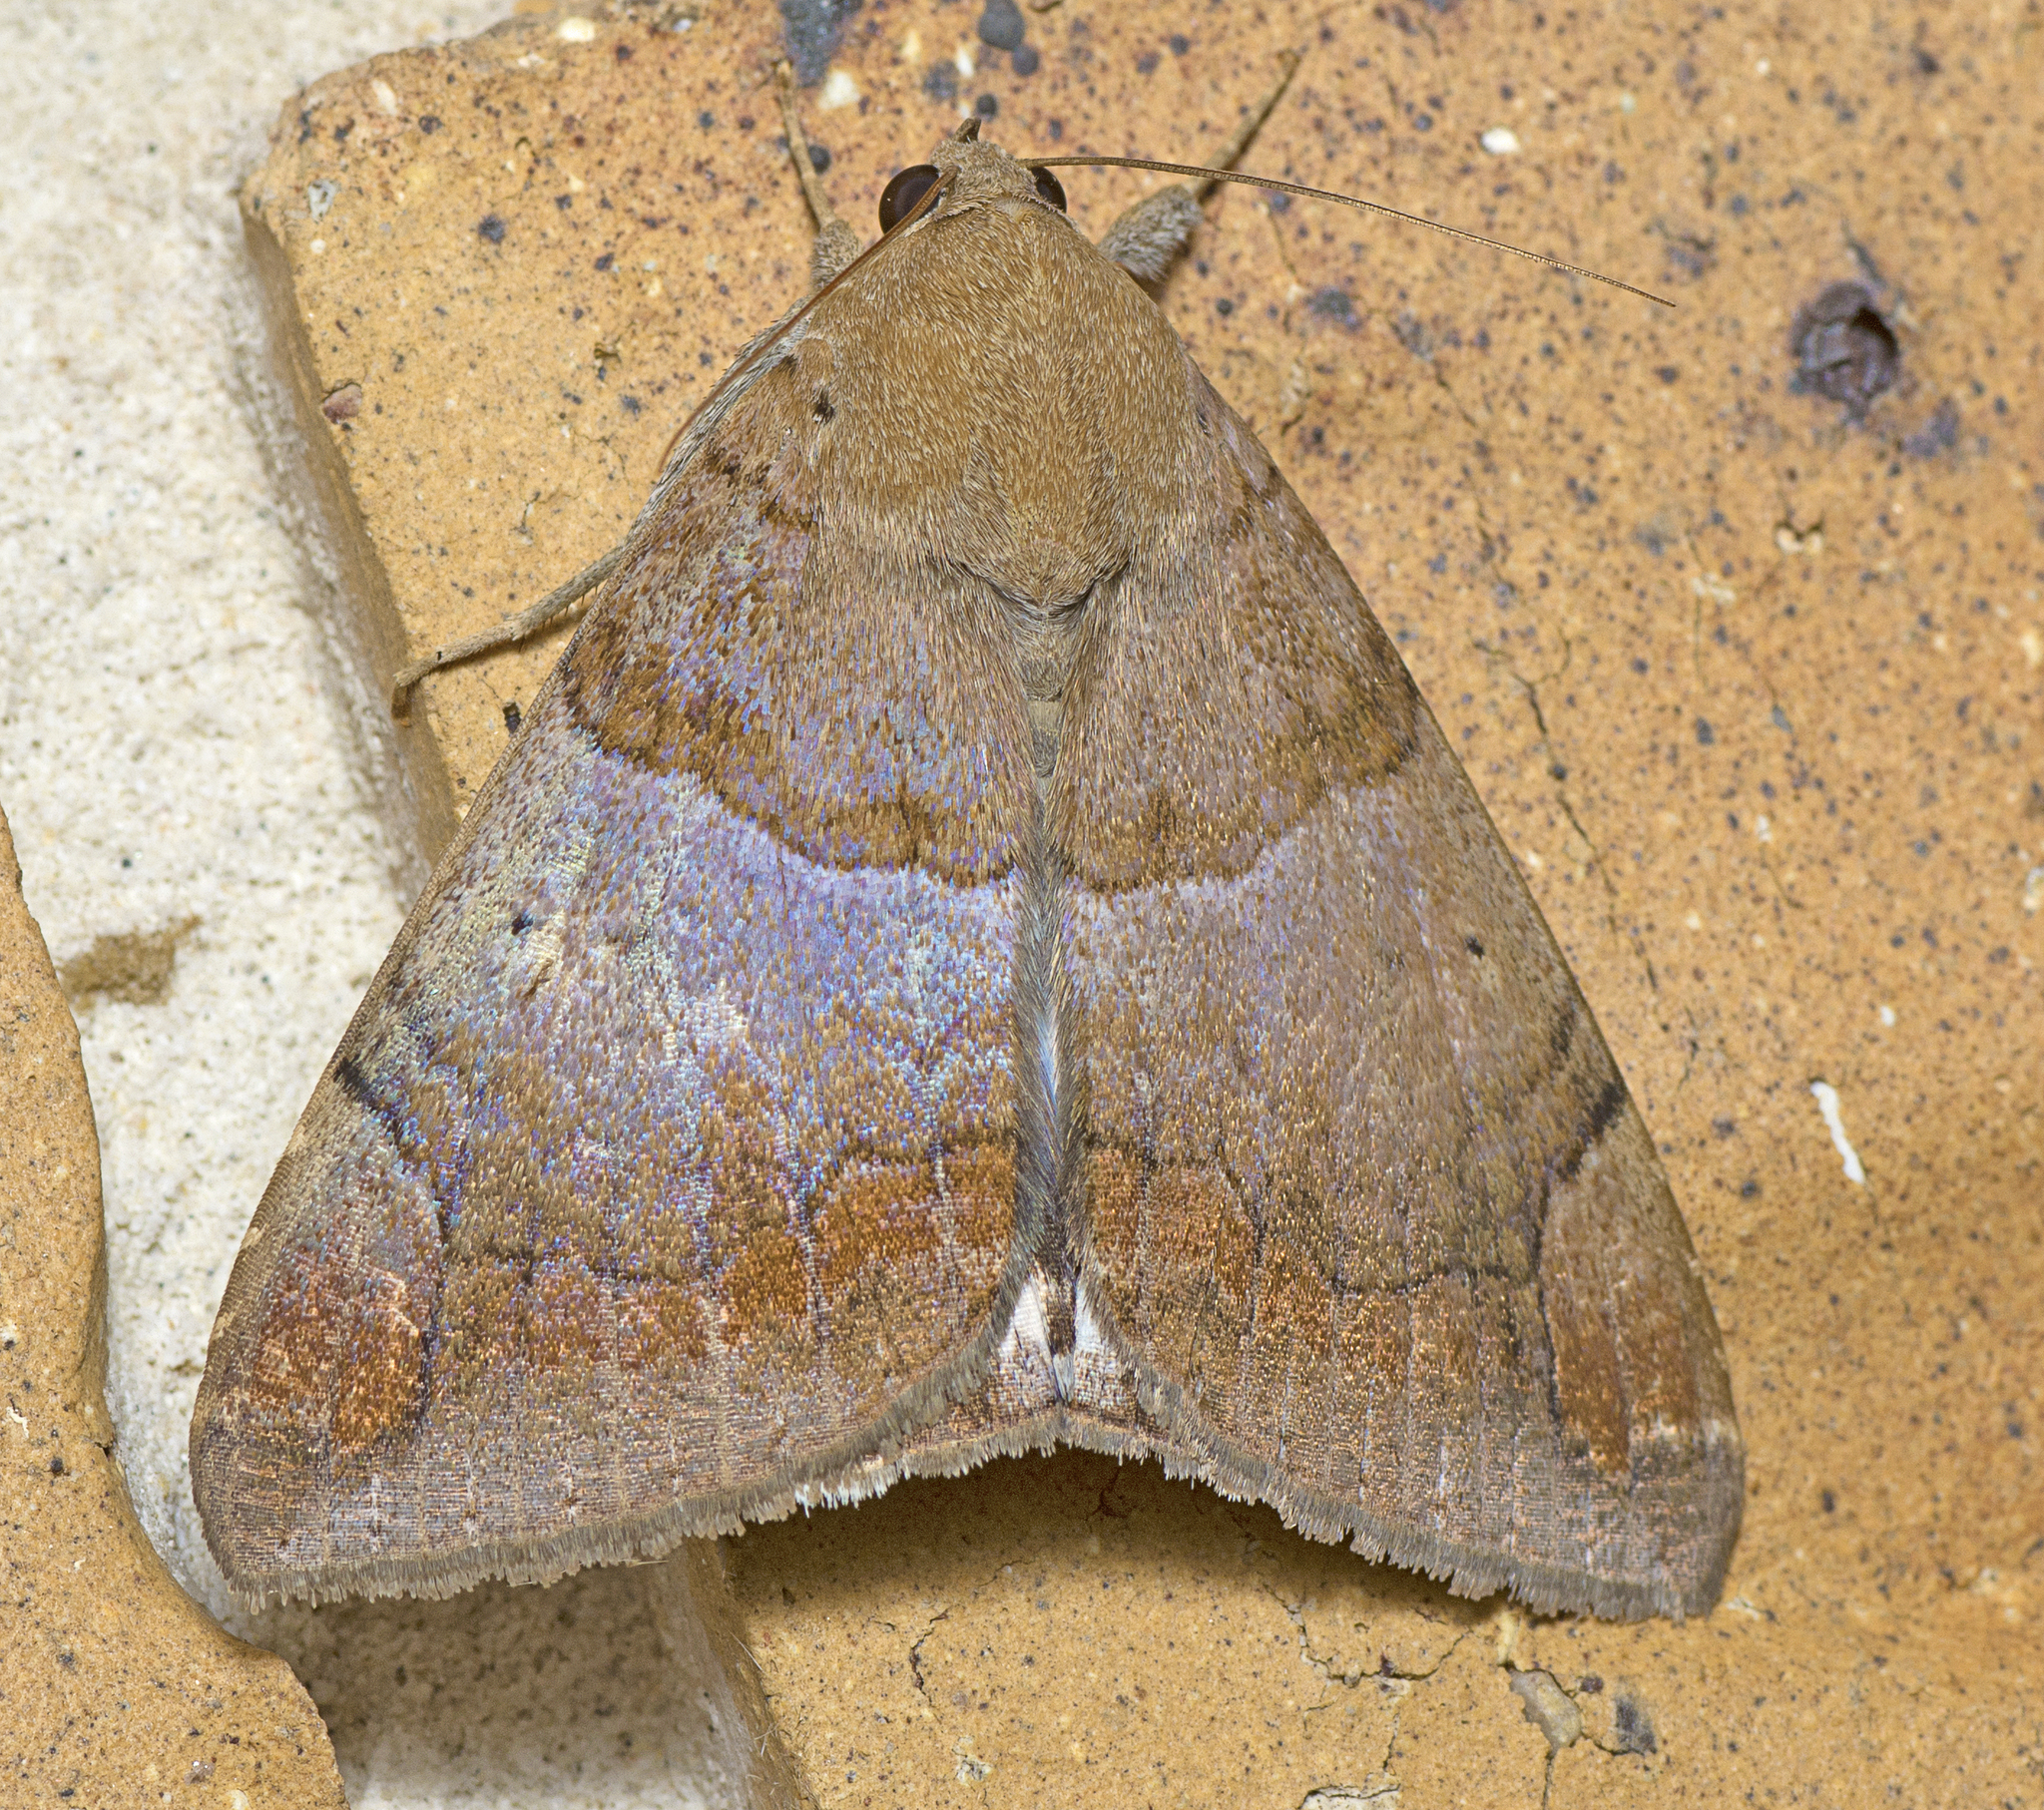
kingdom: Animalia
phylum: Arthropoda
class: Insecta
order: Lepidoptera
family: Erebidae
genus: Achaea
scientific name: Achaea janata
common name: Croton caterpillar
